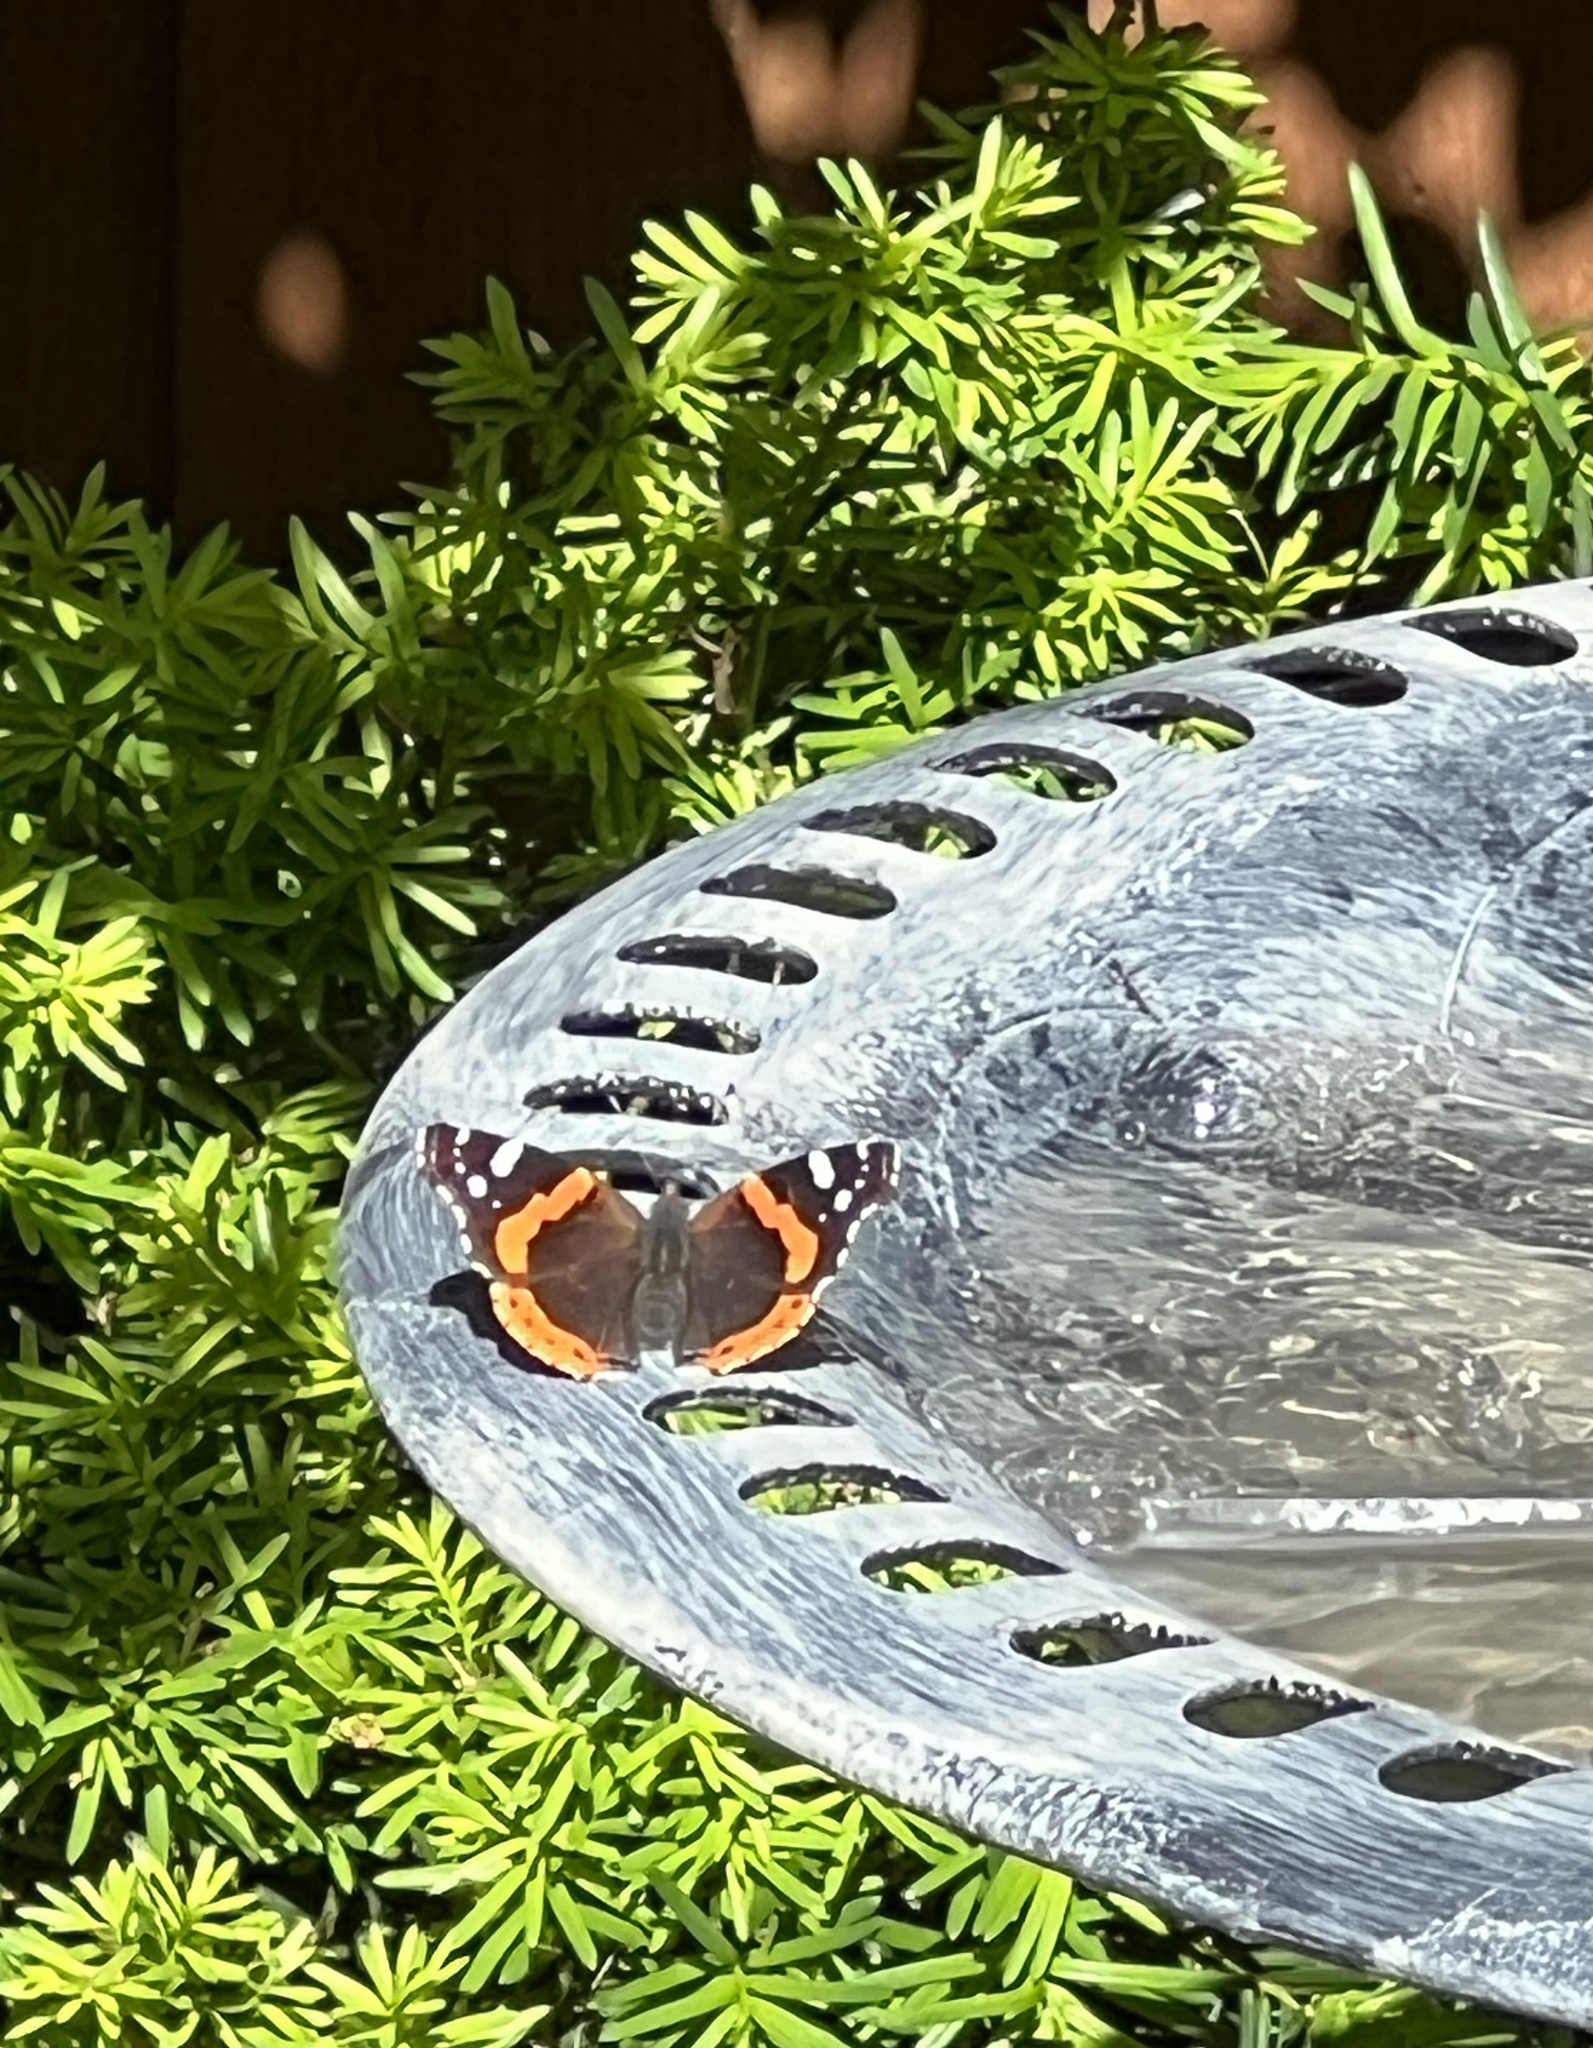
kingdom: Animalia
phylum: Arthropoda
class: Insecta
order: Lepidoptera
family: Nymphalidae
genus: Vanessa
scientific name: Vanessa atalanta
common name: Red admiral
